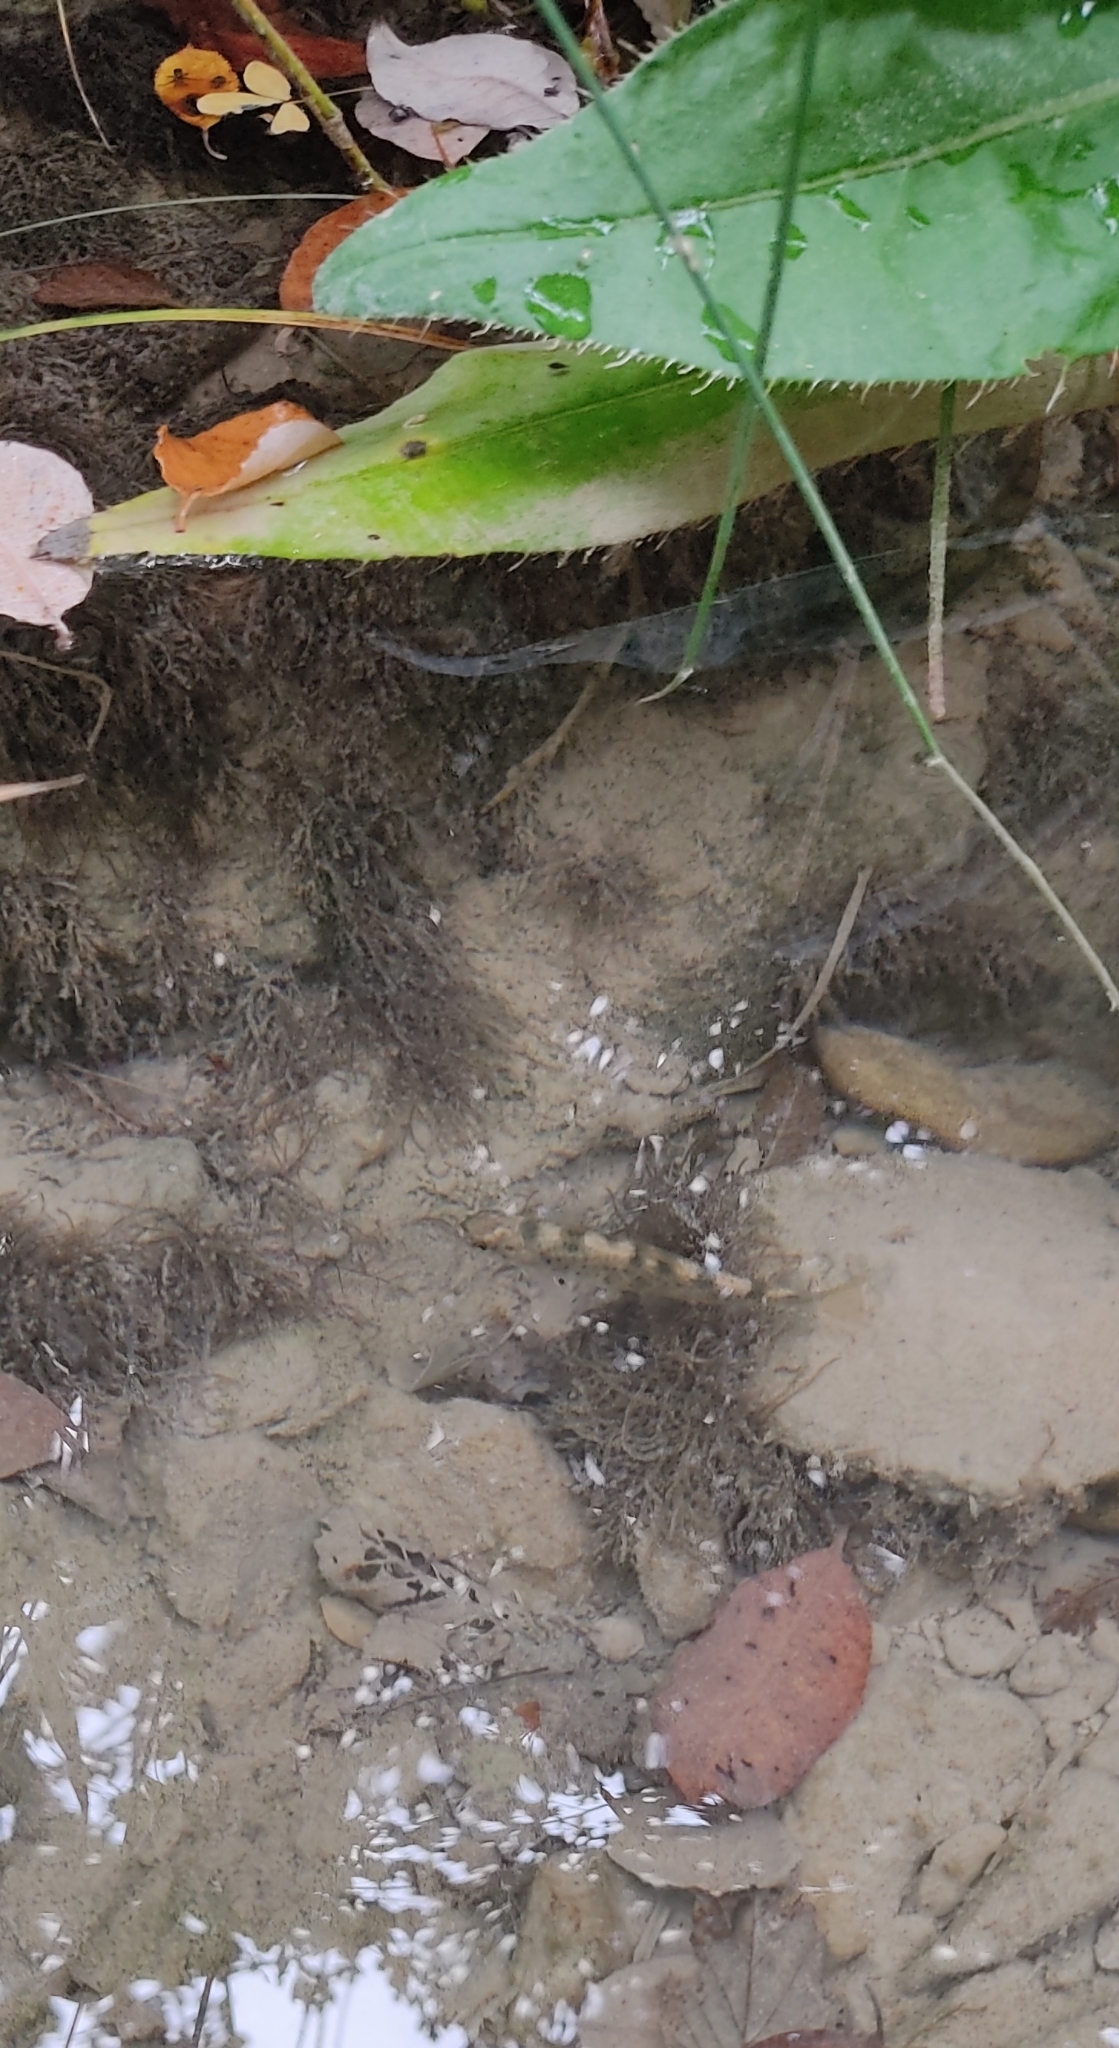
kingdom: Animalia
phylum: Chordata
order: Salmoniformes
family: Salmonidae
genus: Salmo
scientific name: Salmo rhodanensis
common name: Rhône trout
